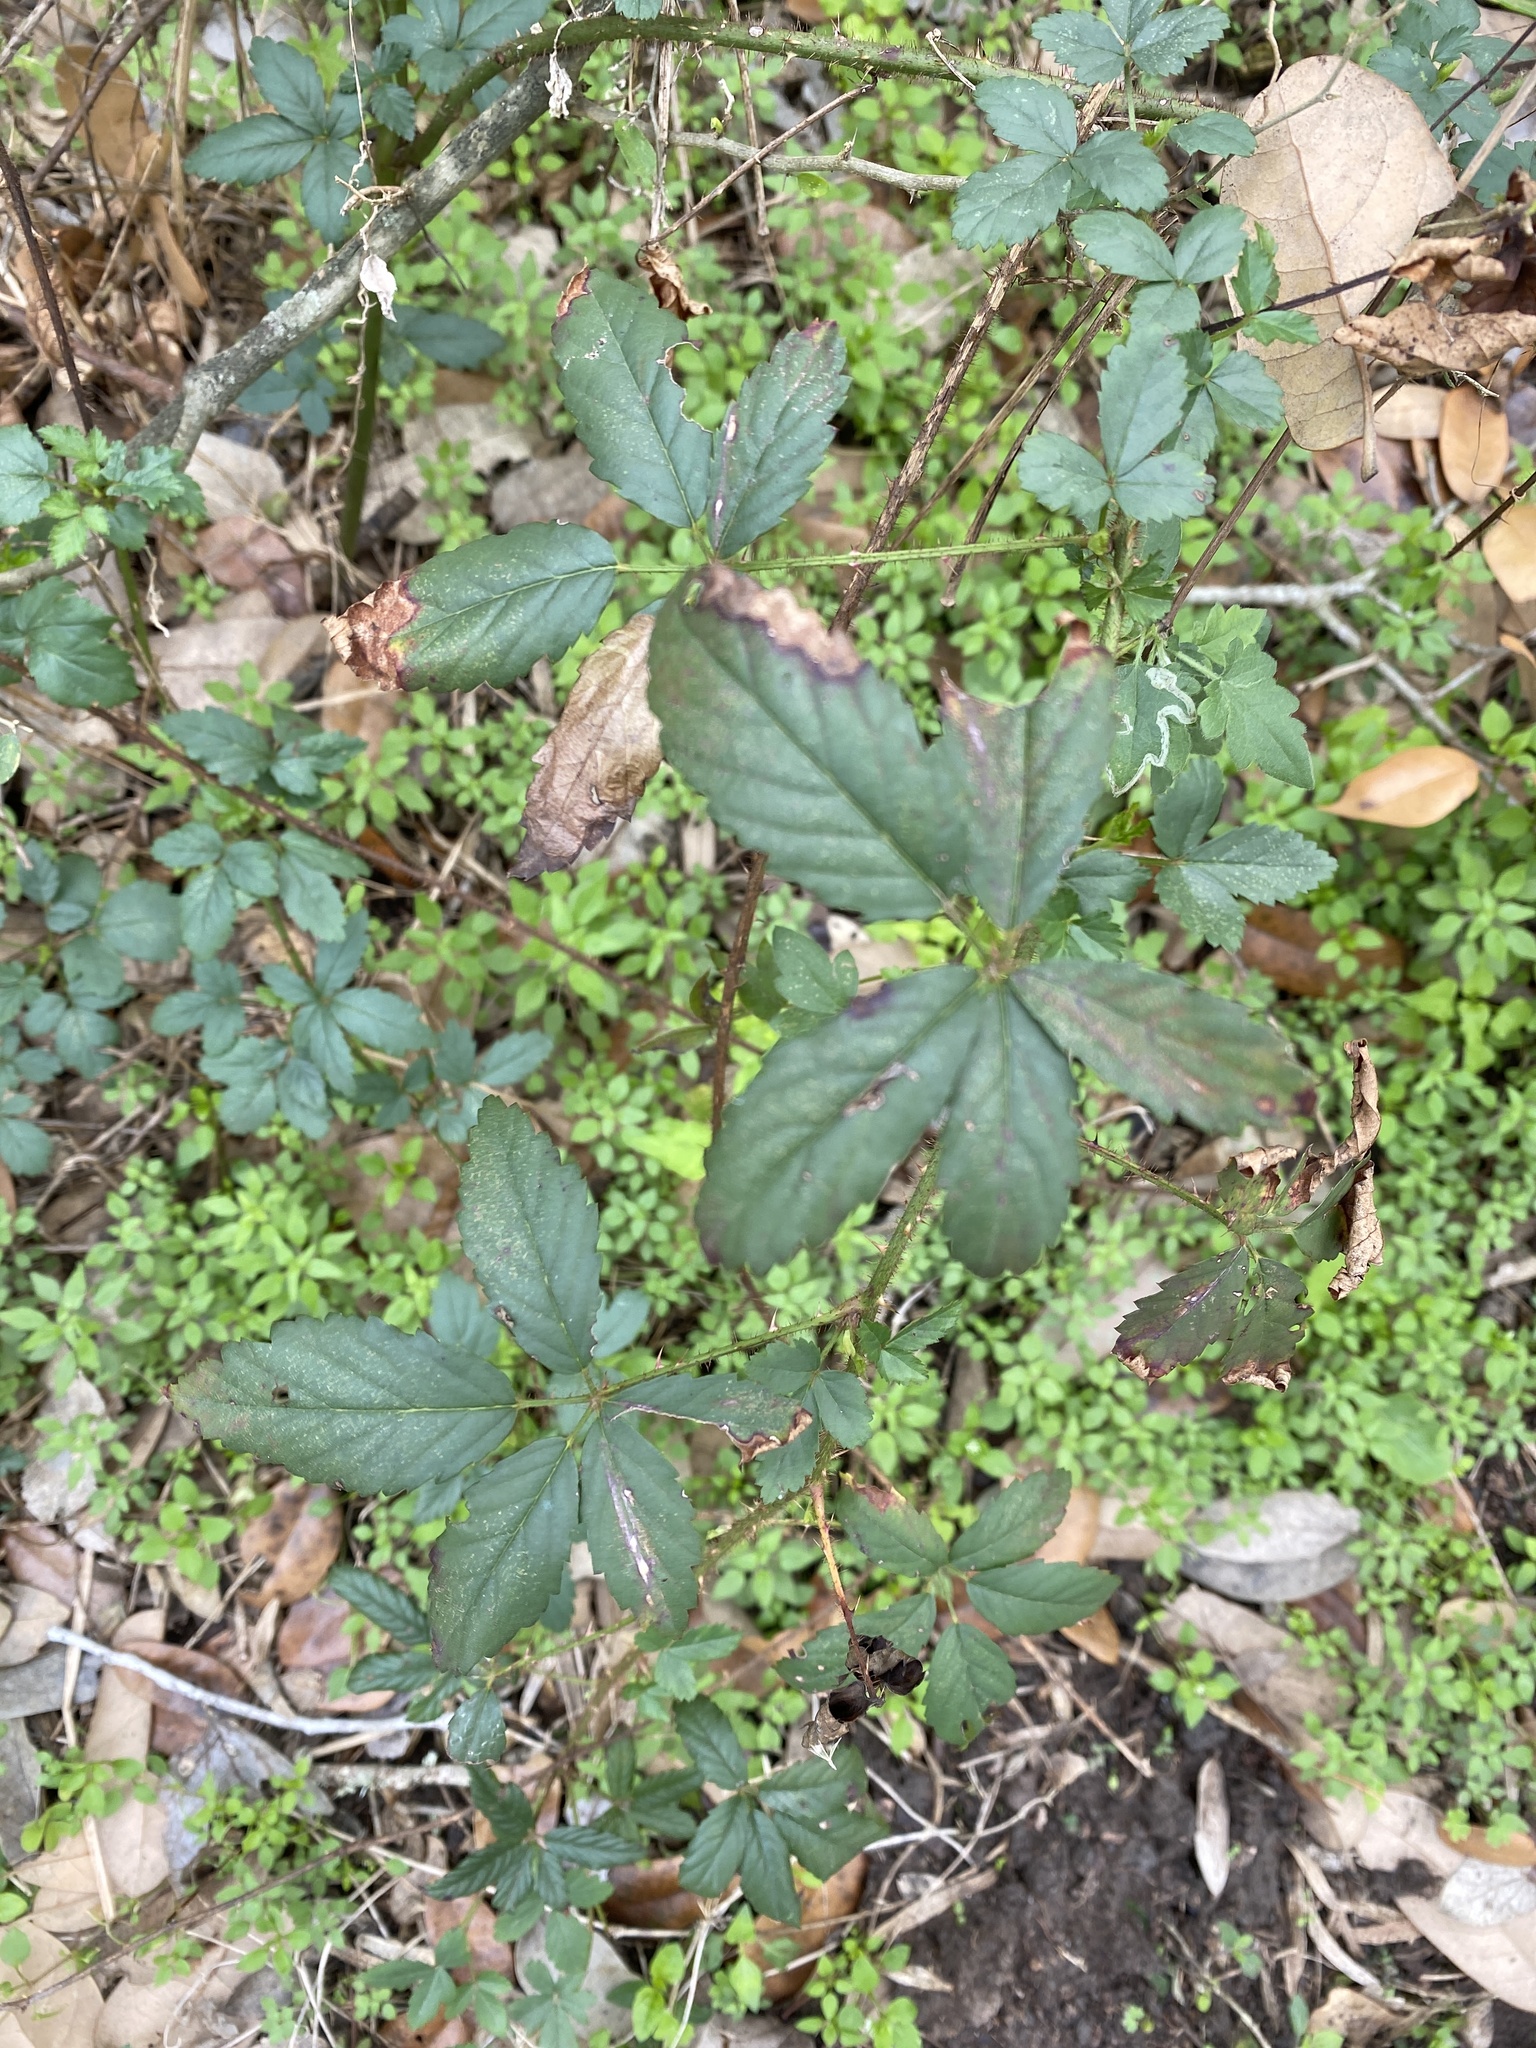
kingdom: Plantae
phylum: Tracheophyta
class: Magnoliopsida
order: Rosales
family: Rosaceae
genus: Rubus
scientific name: Rubus trivialis
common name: Southern dewberry
